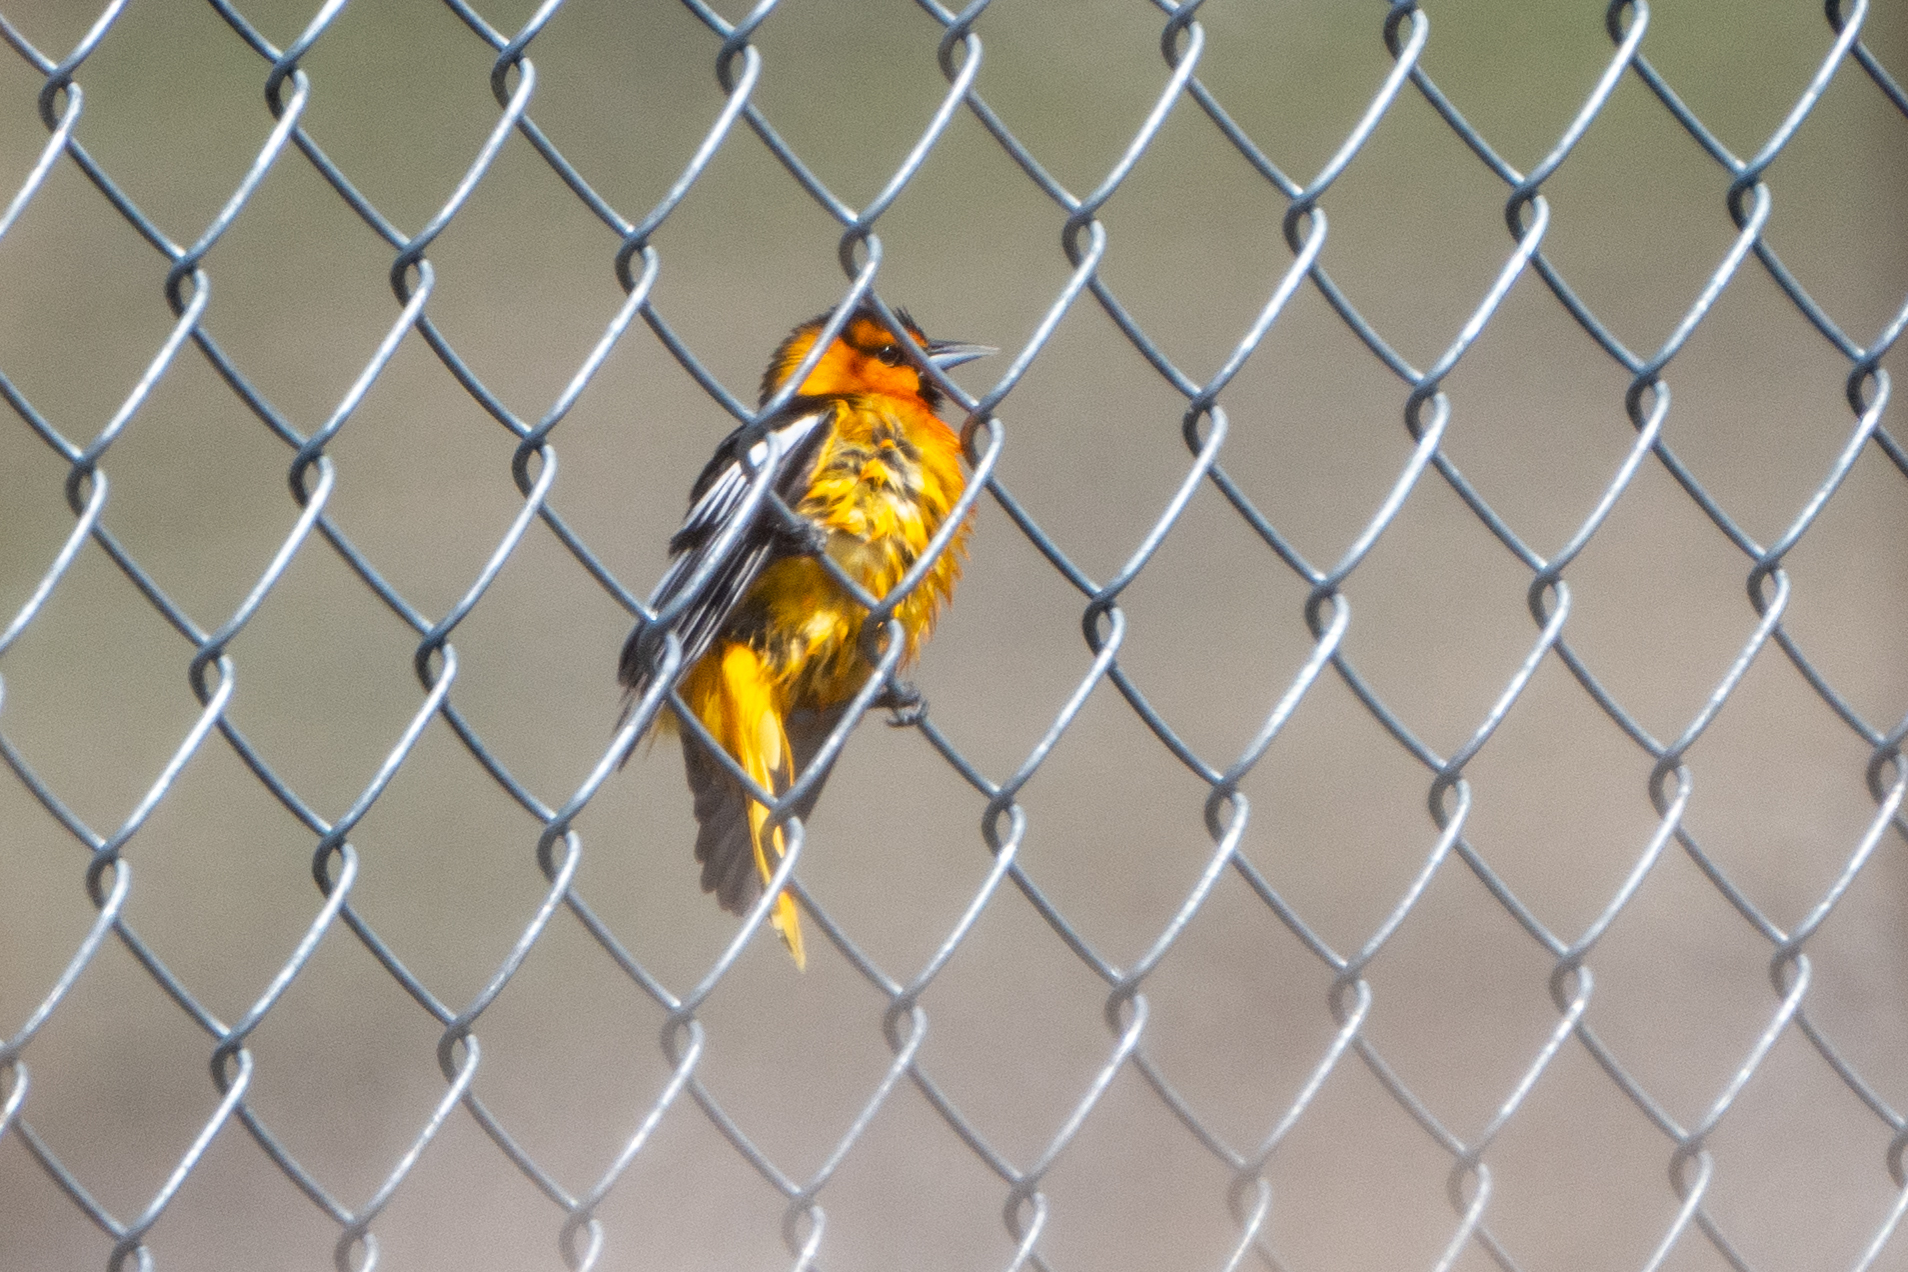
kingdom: Animalia
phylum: Chordata
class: Aves
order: Passeriformes
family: Icteridae
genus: Icterus
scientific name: Icterus bullockii
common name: Bullock's oriole
